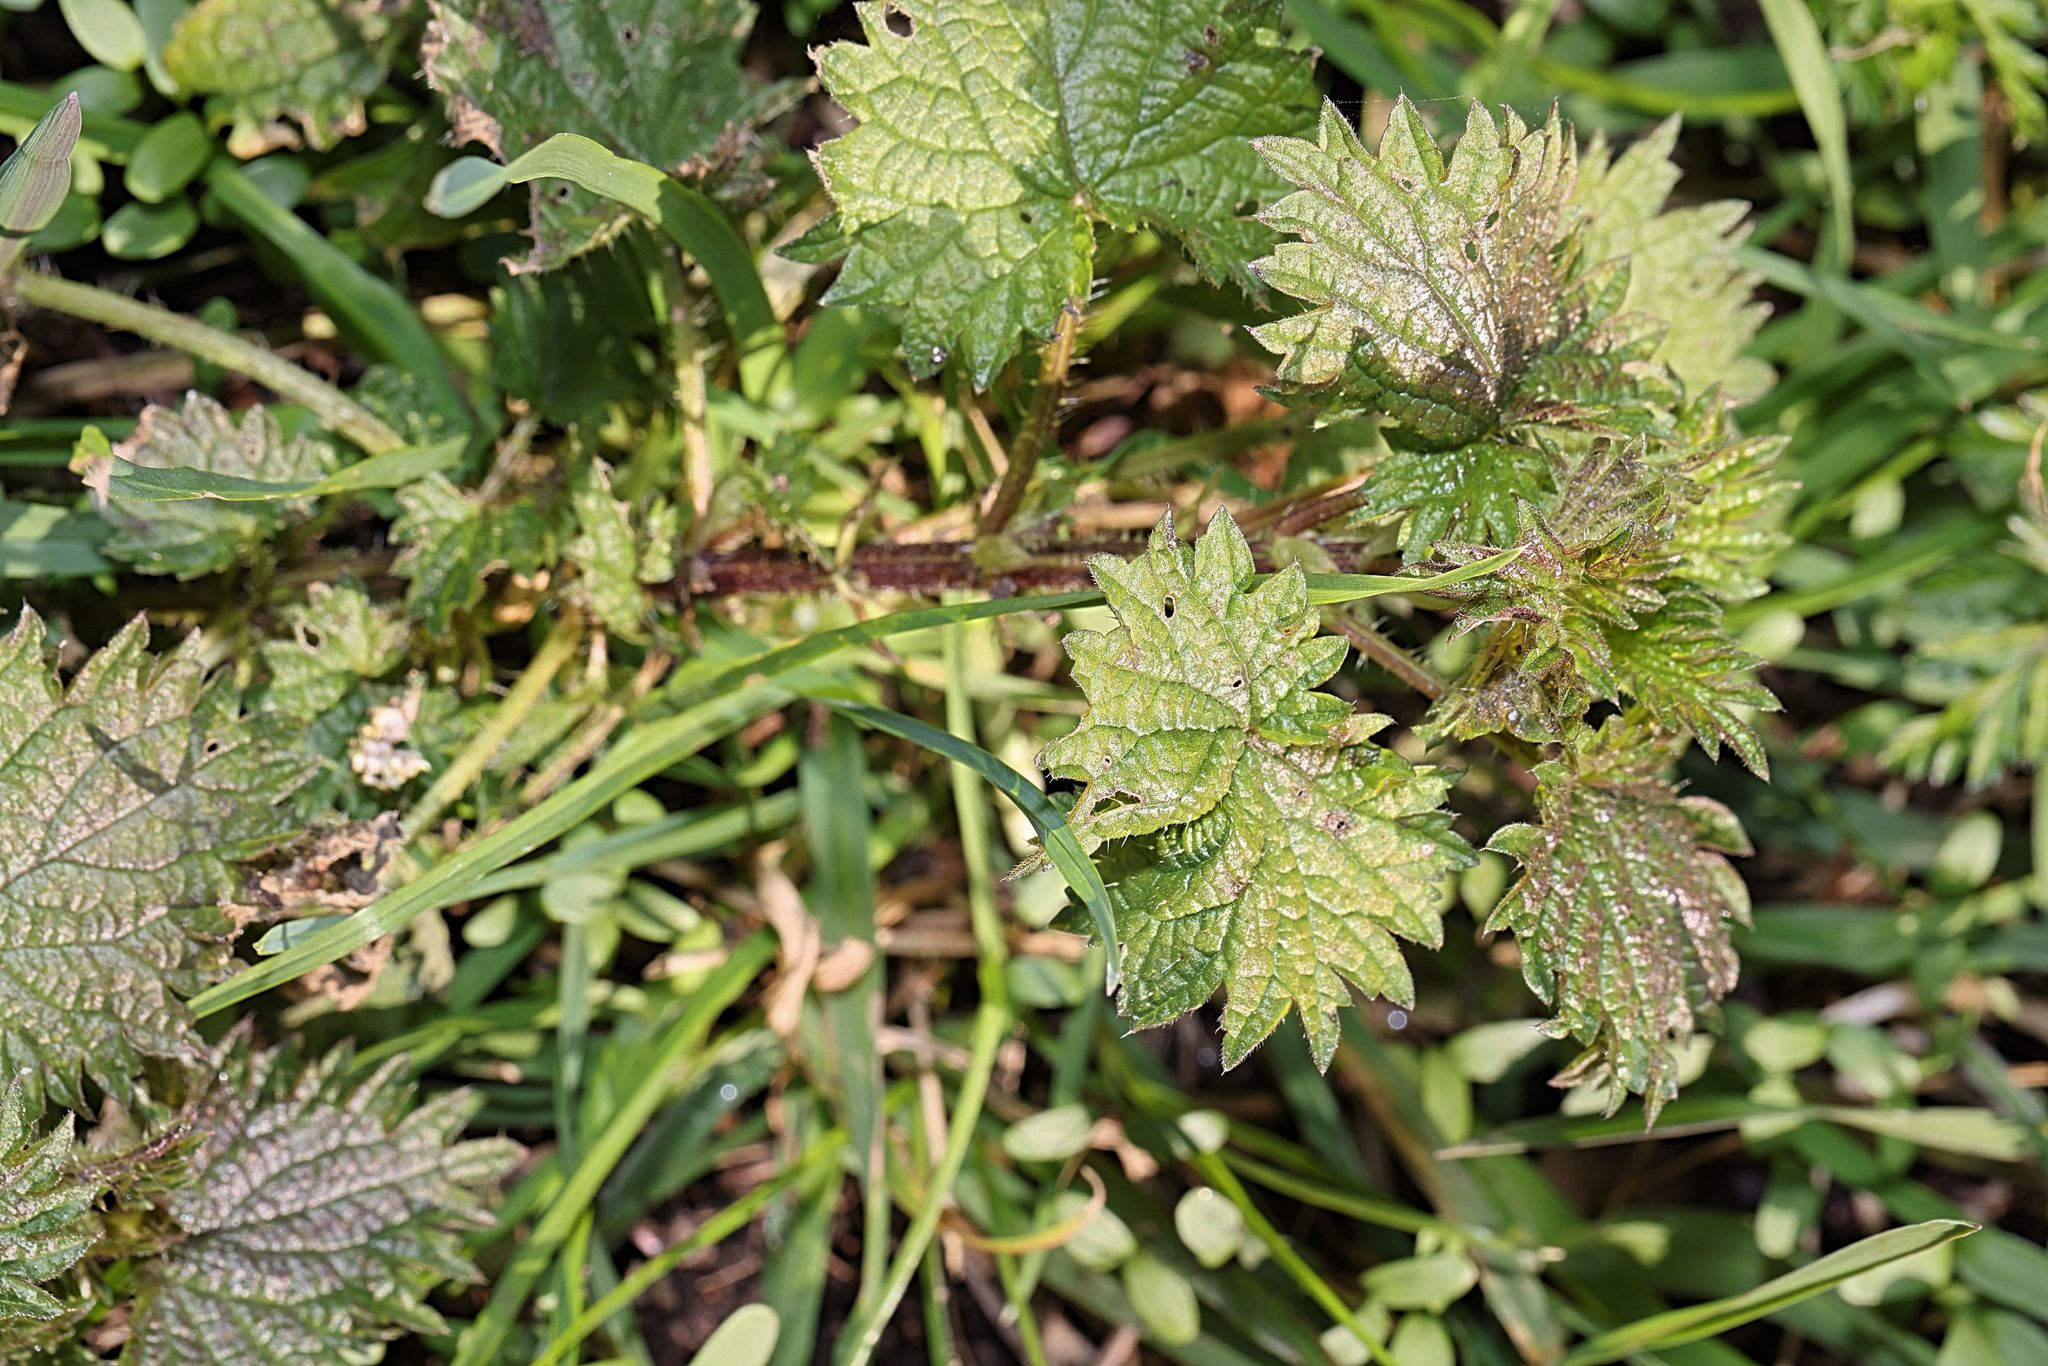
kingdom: Plantae
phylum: Tracheophyta
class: Magnoliopsida
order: Rosales
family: Urticaceae
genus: Urtica
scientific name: Urtica dioica
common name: Common nettle
